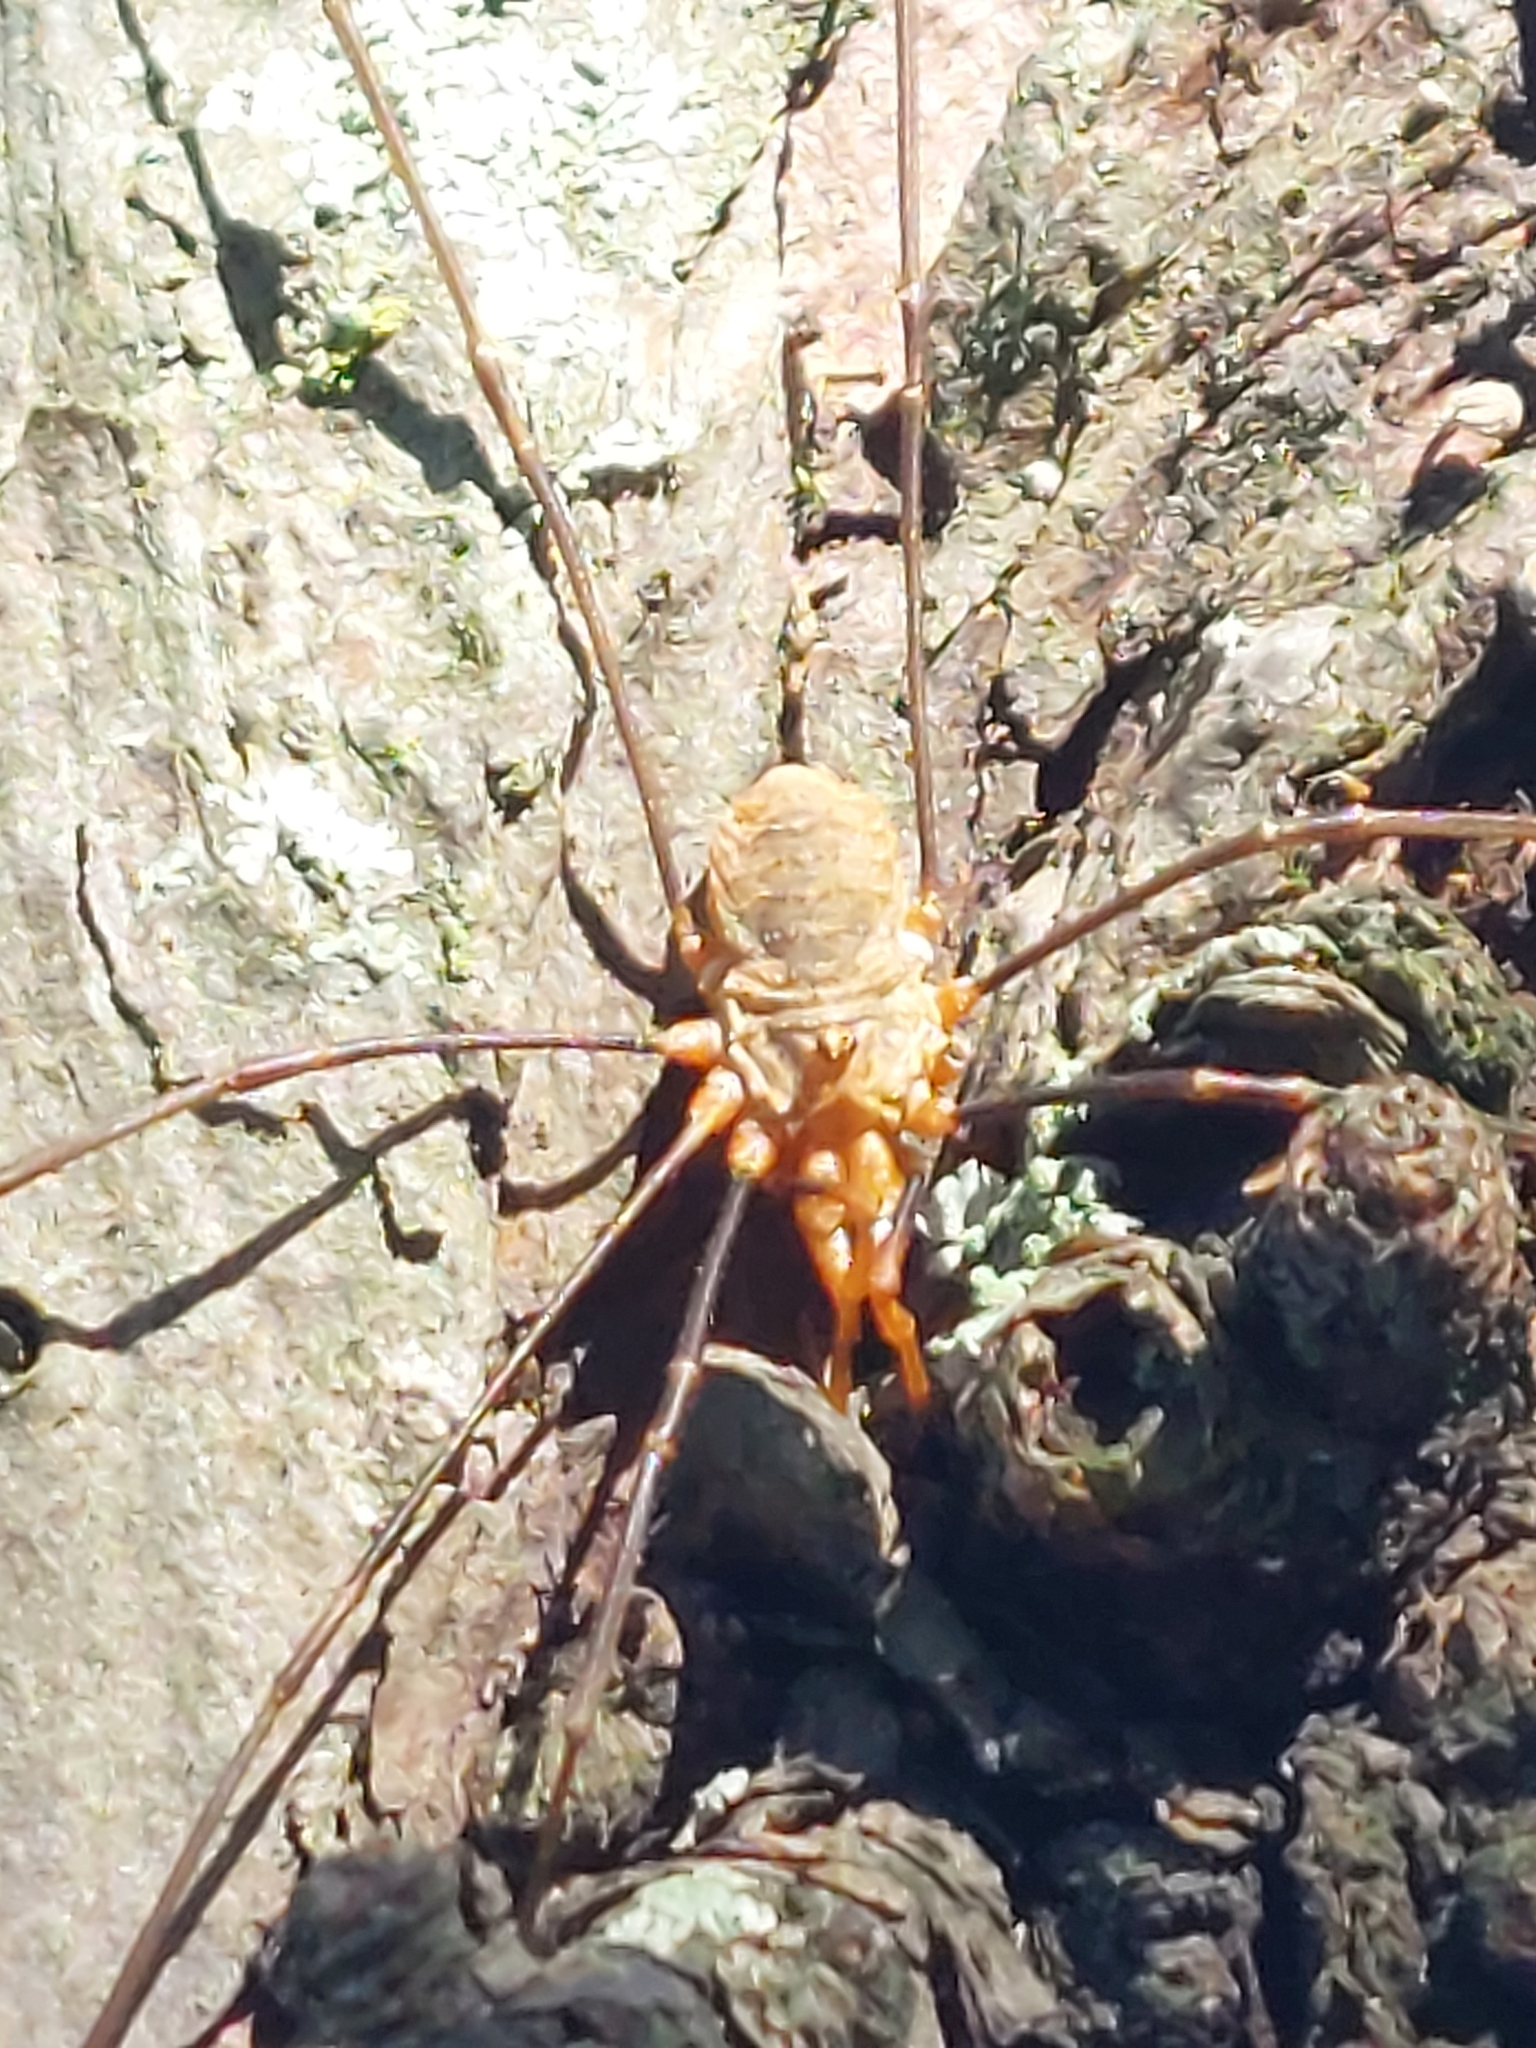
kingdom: Animalia
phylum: Arthropoda
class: Arachnida
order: Opiliones
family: Phalangiidae
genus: Phalangium
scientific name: Phalangium opilio
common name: Daddy longleg
